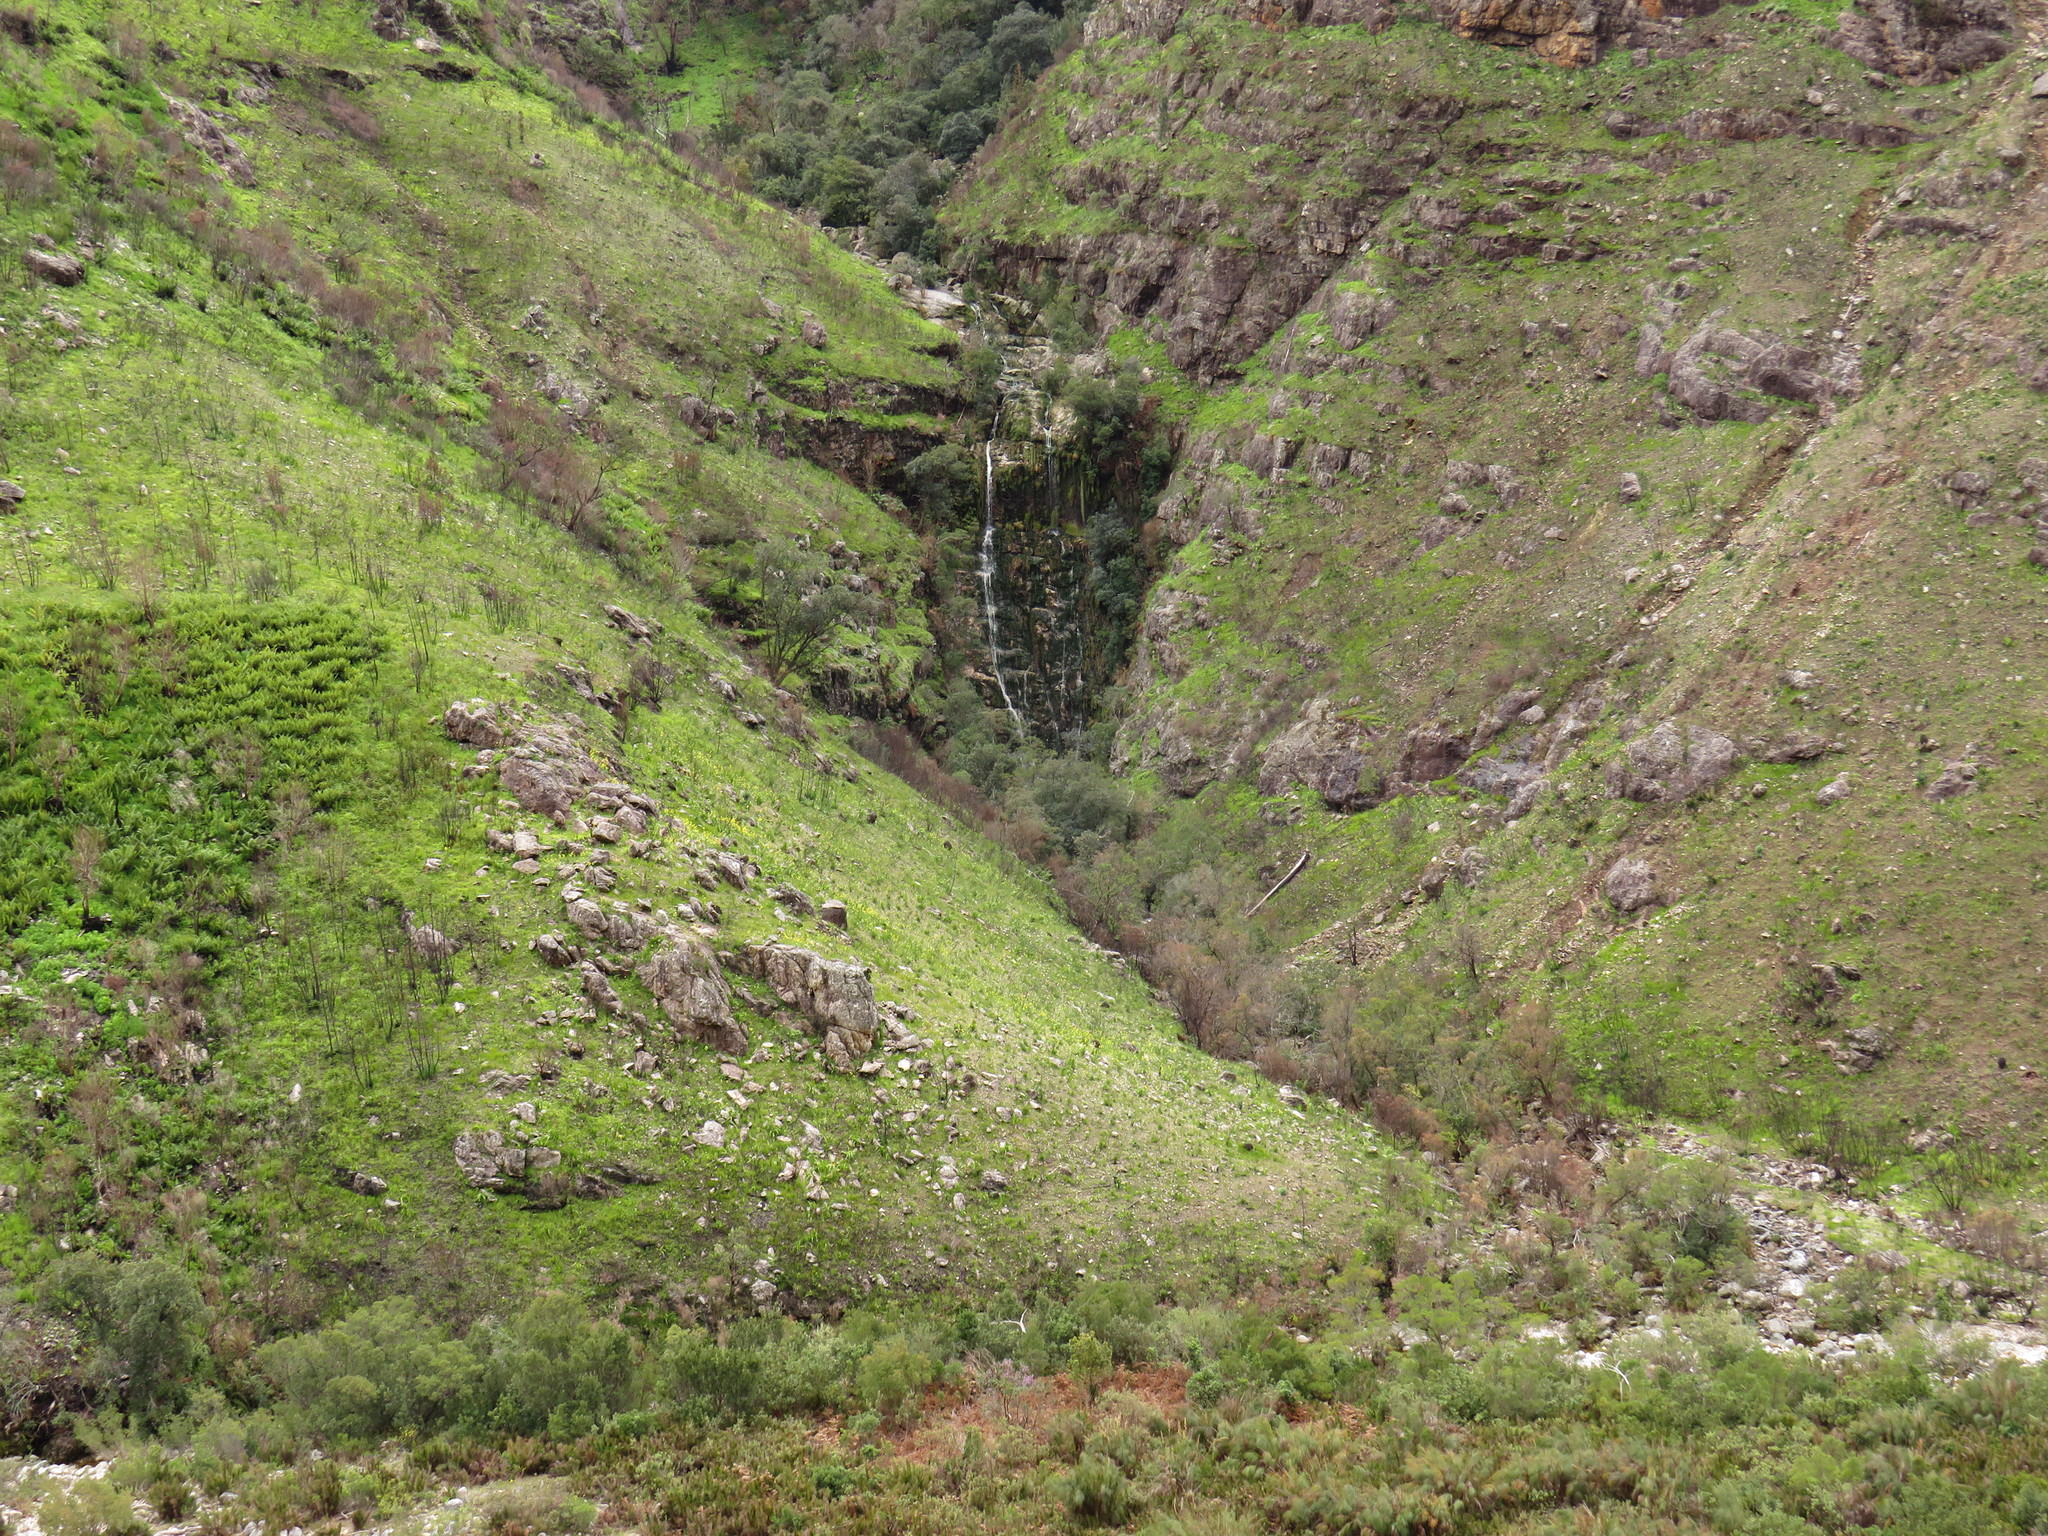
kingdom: Plantae
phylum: Tracheophyta
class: Liliopsida
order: Asparagales
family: Iridaceae
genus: Moraea
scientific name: Moraea ochroleuca
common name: Red tulp
